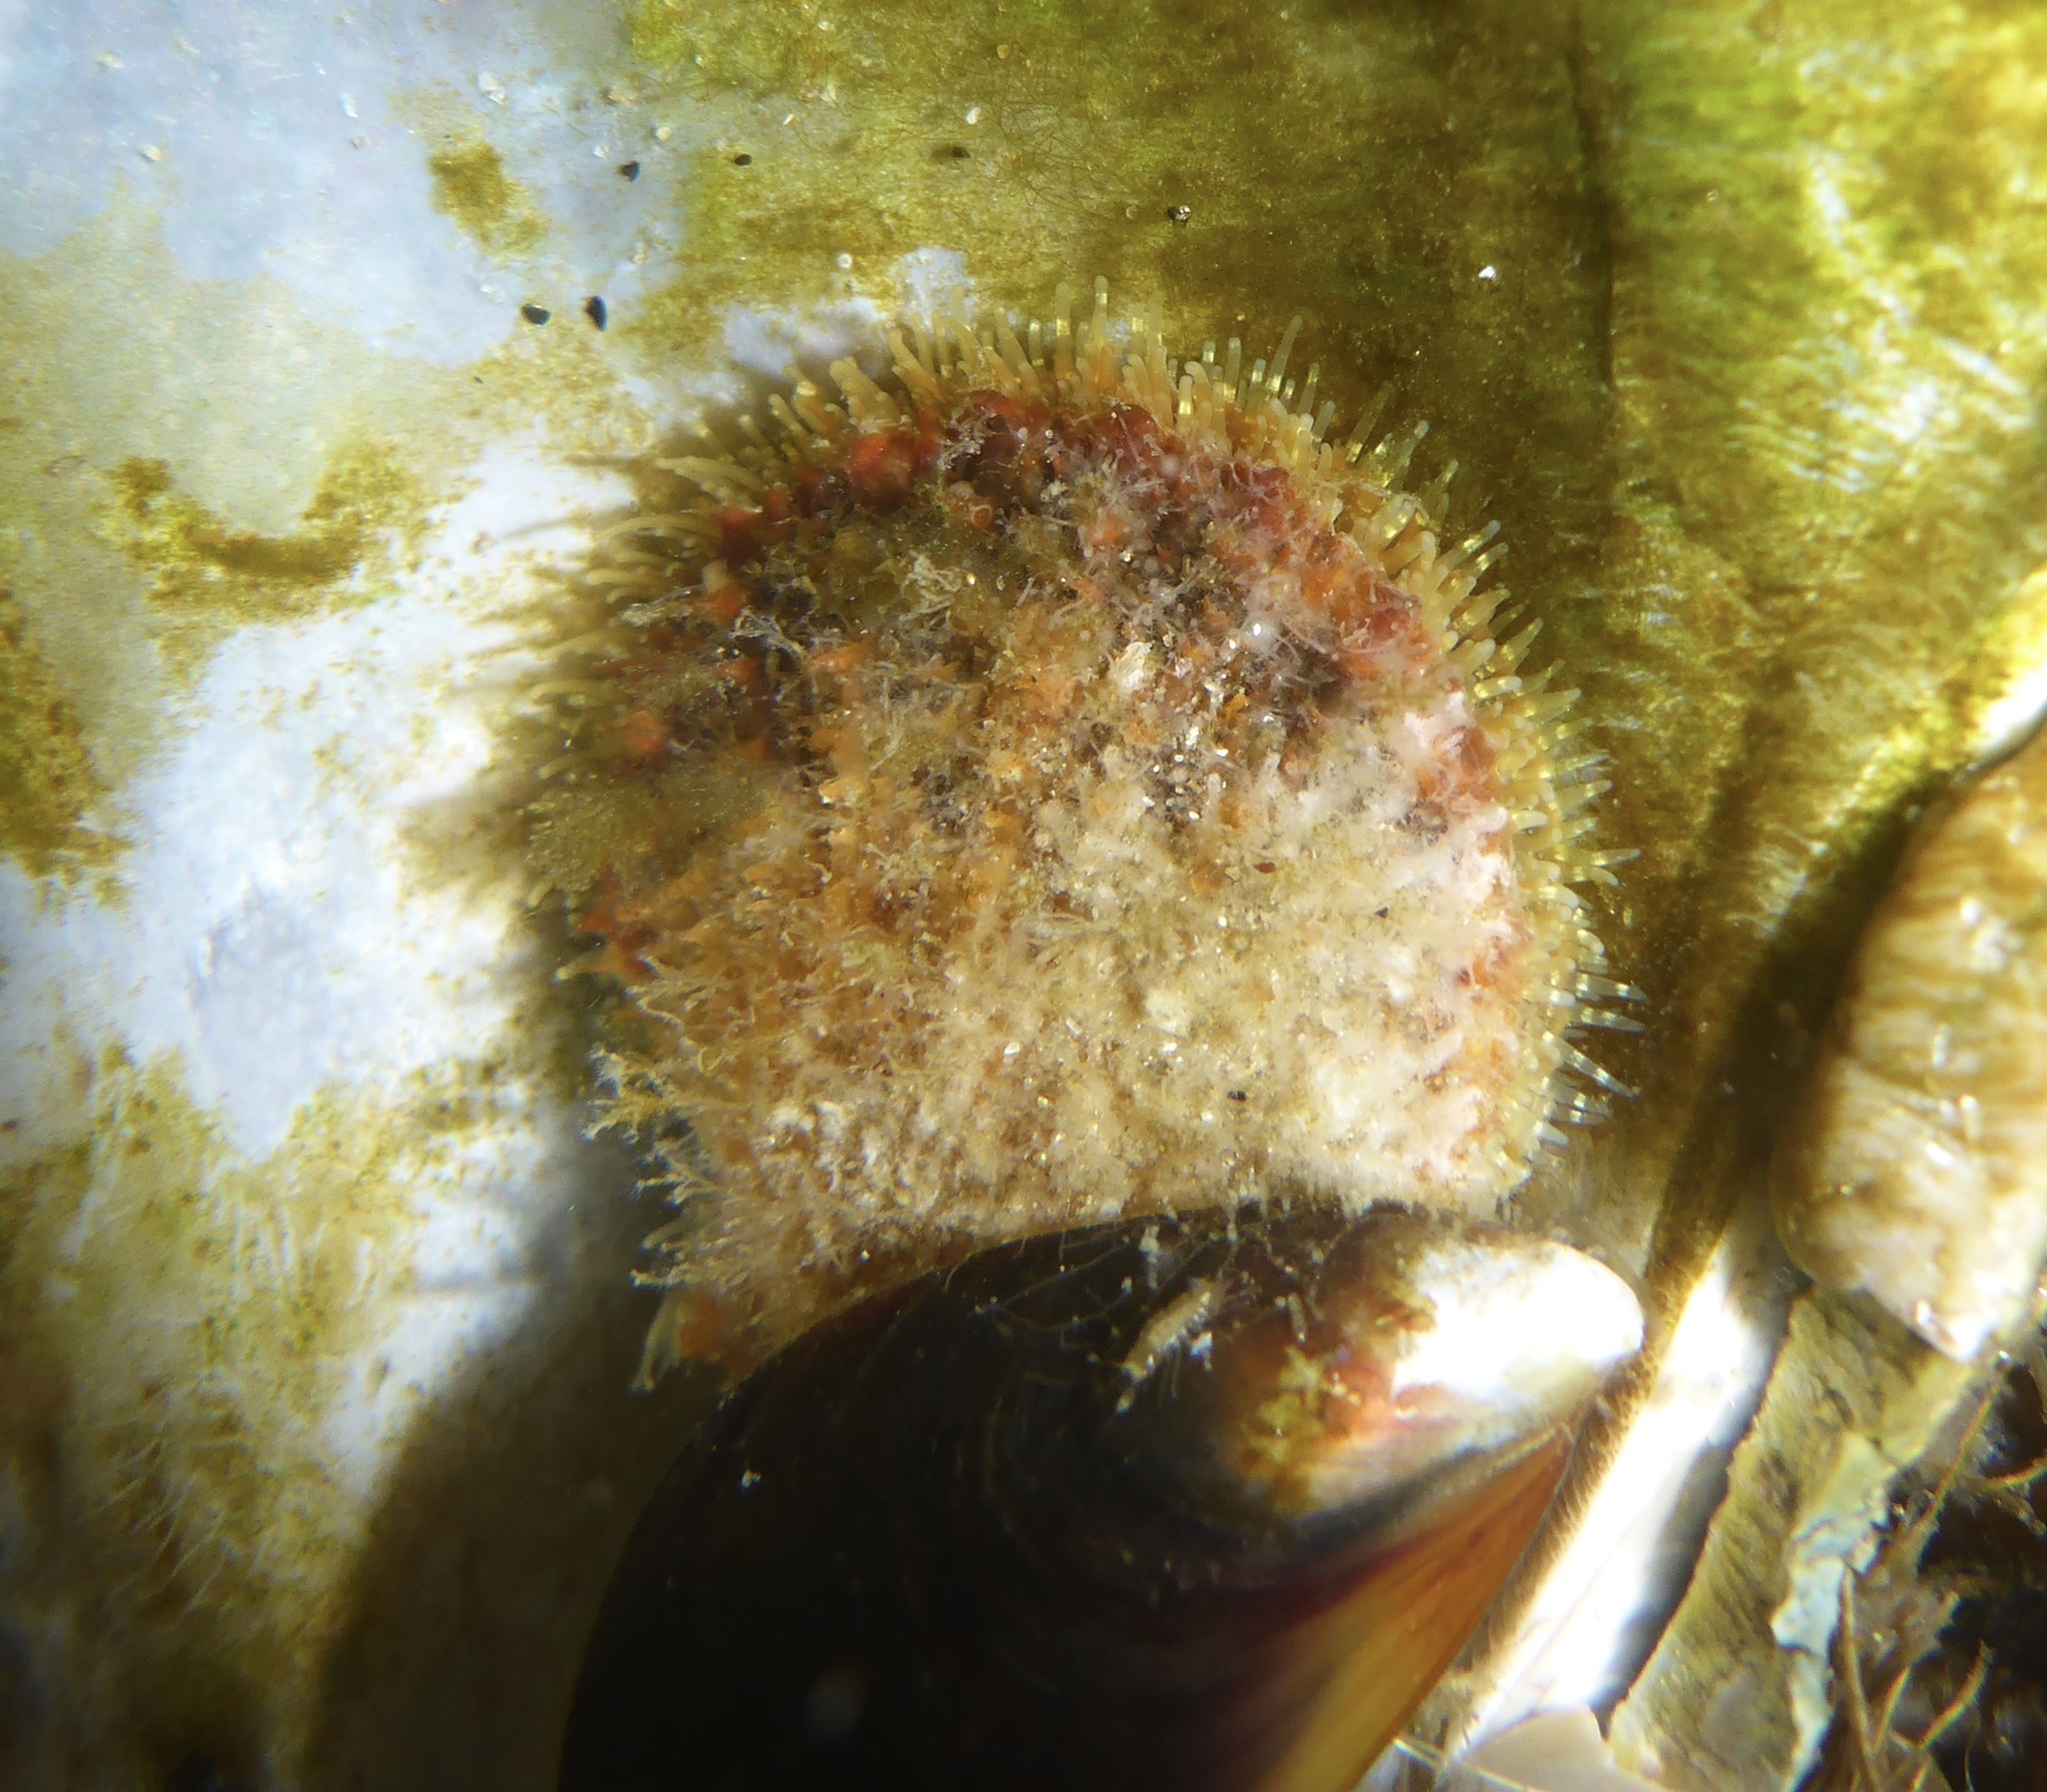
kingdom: Animalia
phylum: Mollusca
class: Bivalvia
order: Pectinida
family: Pectinidae
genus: Crassadoma
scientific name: Crassadoma gigantea
